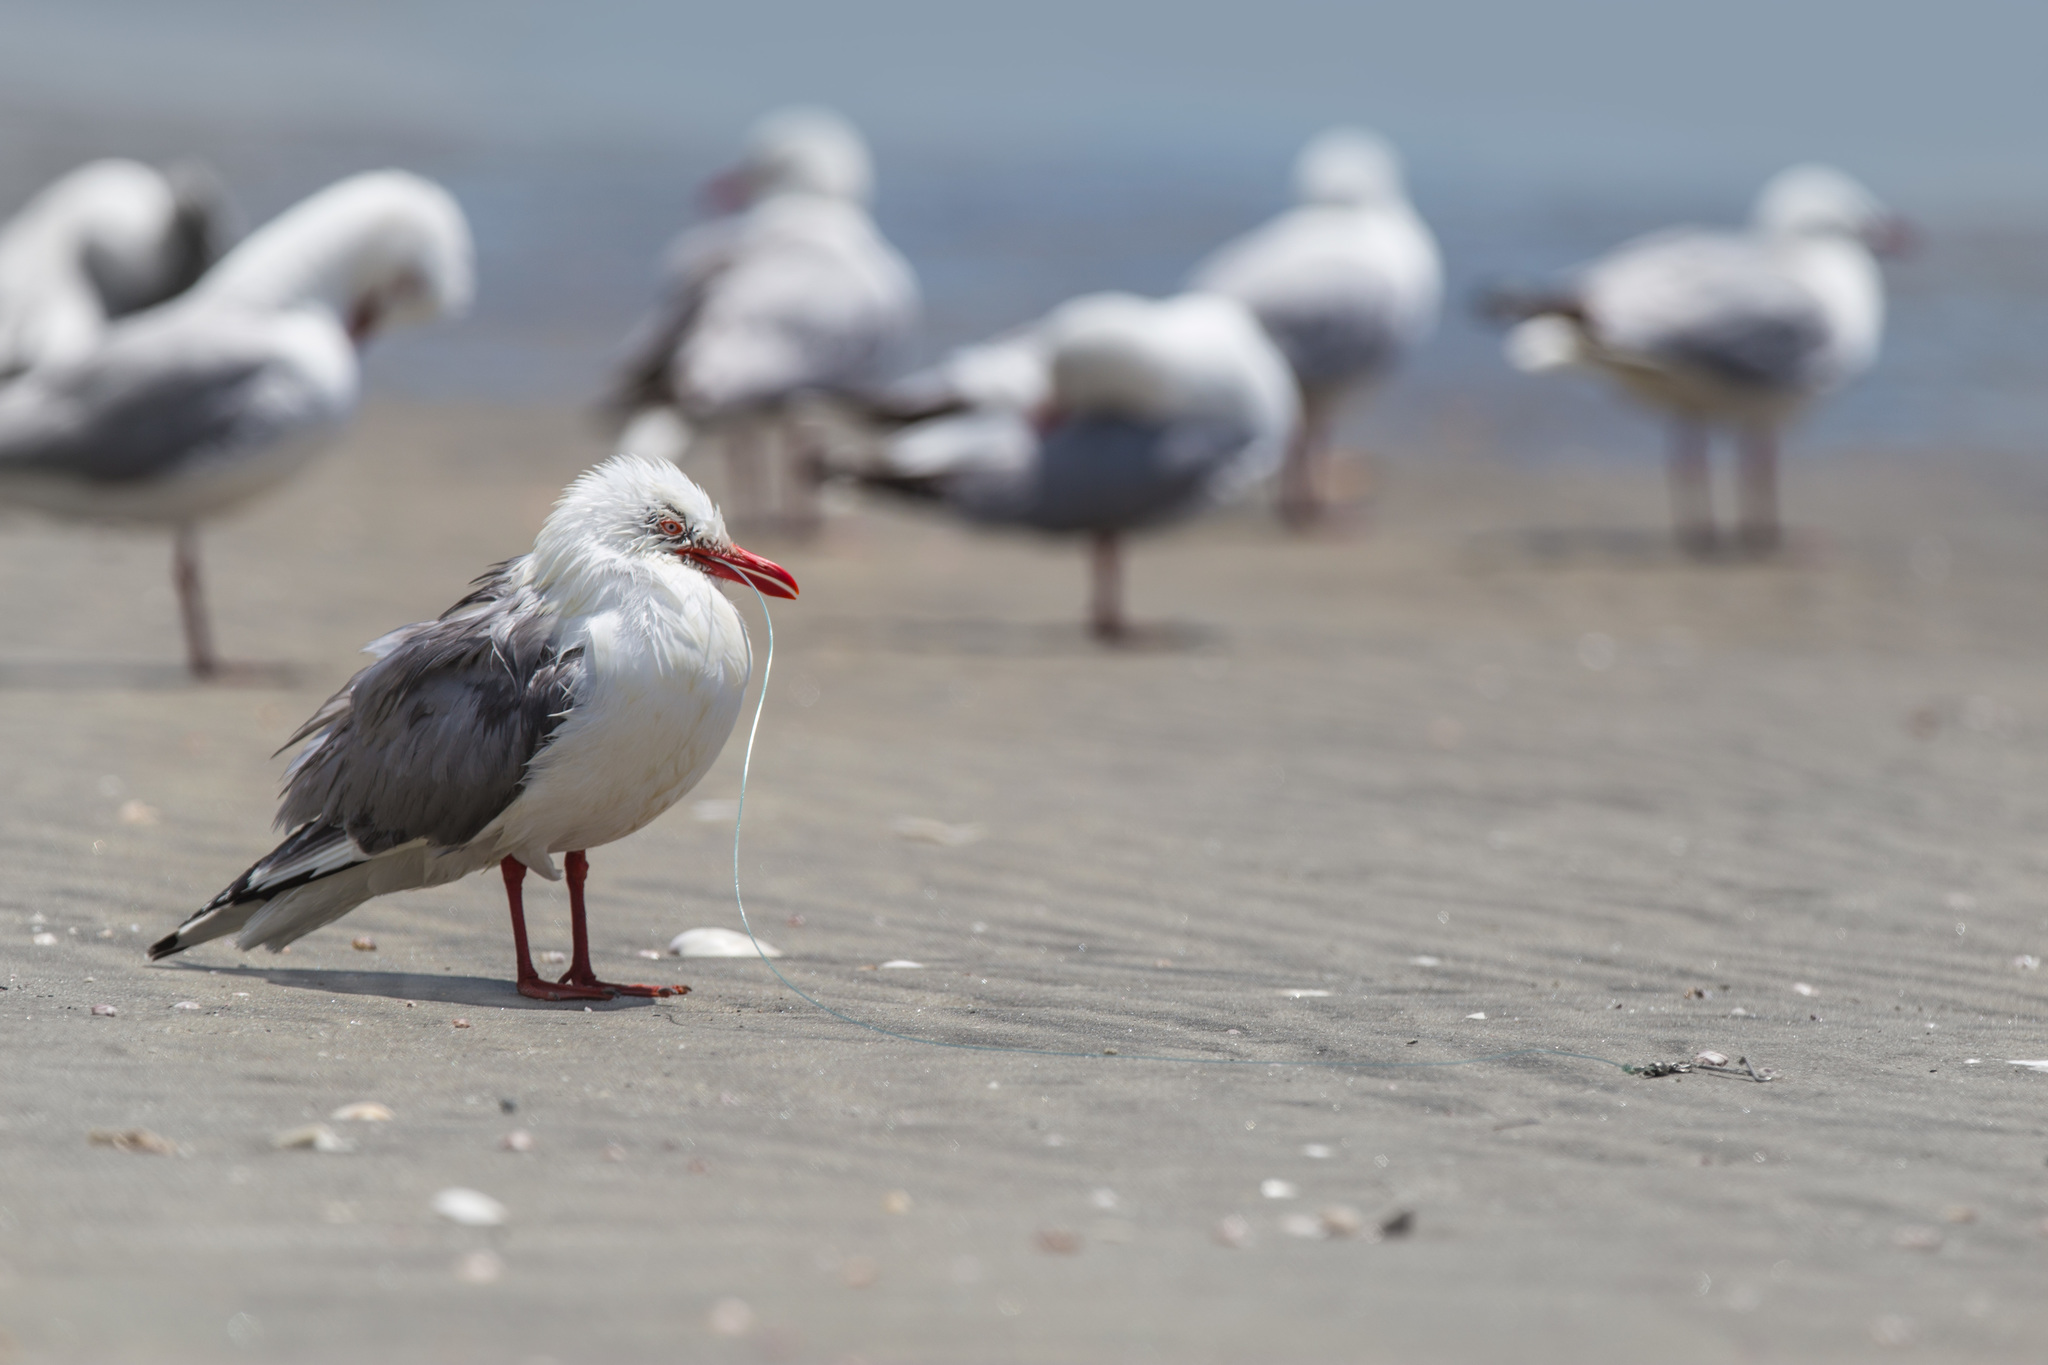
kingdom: Animalia
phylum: Chordata
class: Aves
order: Charadriiformes
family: Laridae
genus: Chroicocephalus
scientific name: Chroicocephalus novaehollandiae
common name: Silver gull
